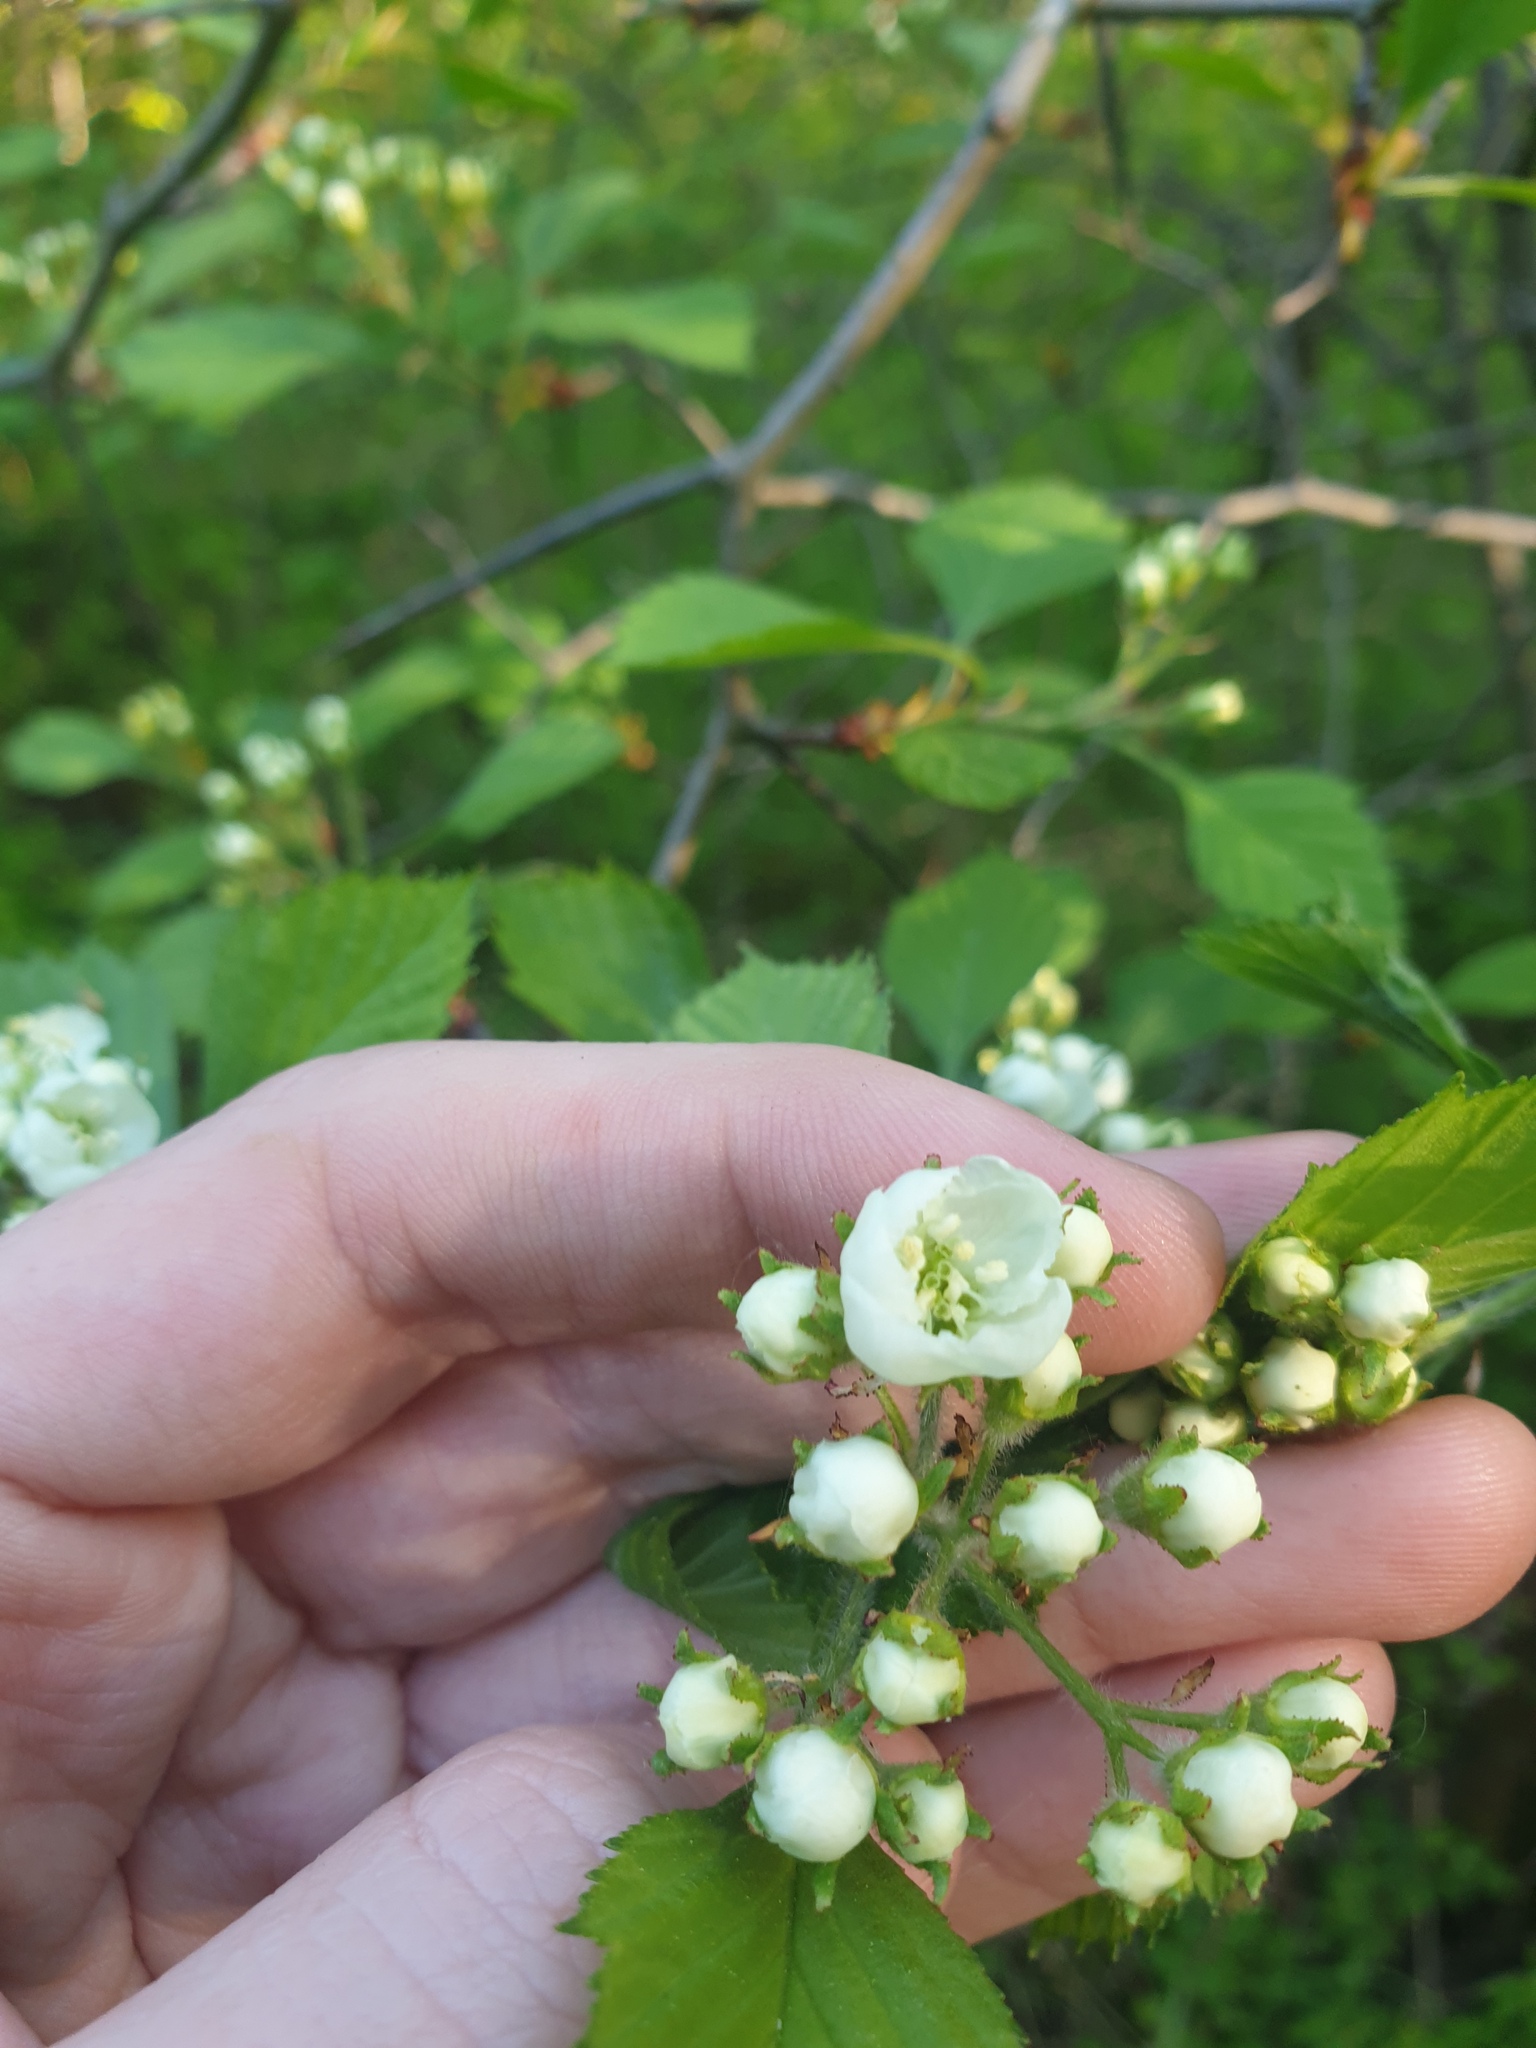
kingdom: Plantae
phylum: Tracheophyta
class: Magnoliopsida
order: Rosales
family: Rosaceae
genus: Crataegus
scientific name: Crataegus chrysocarpa
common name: Fire-berry hawthorn
